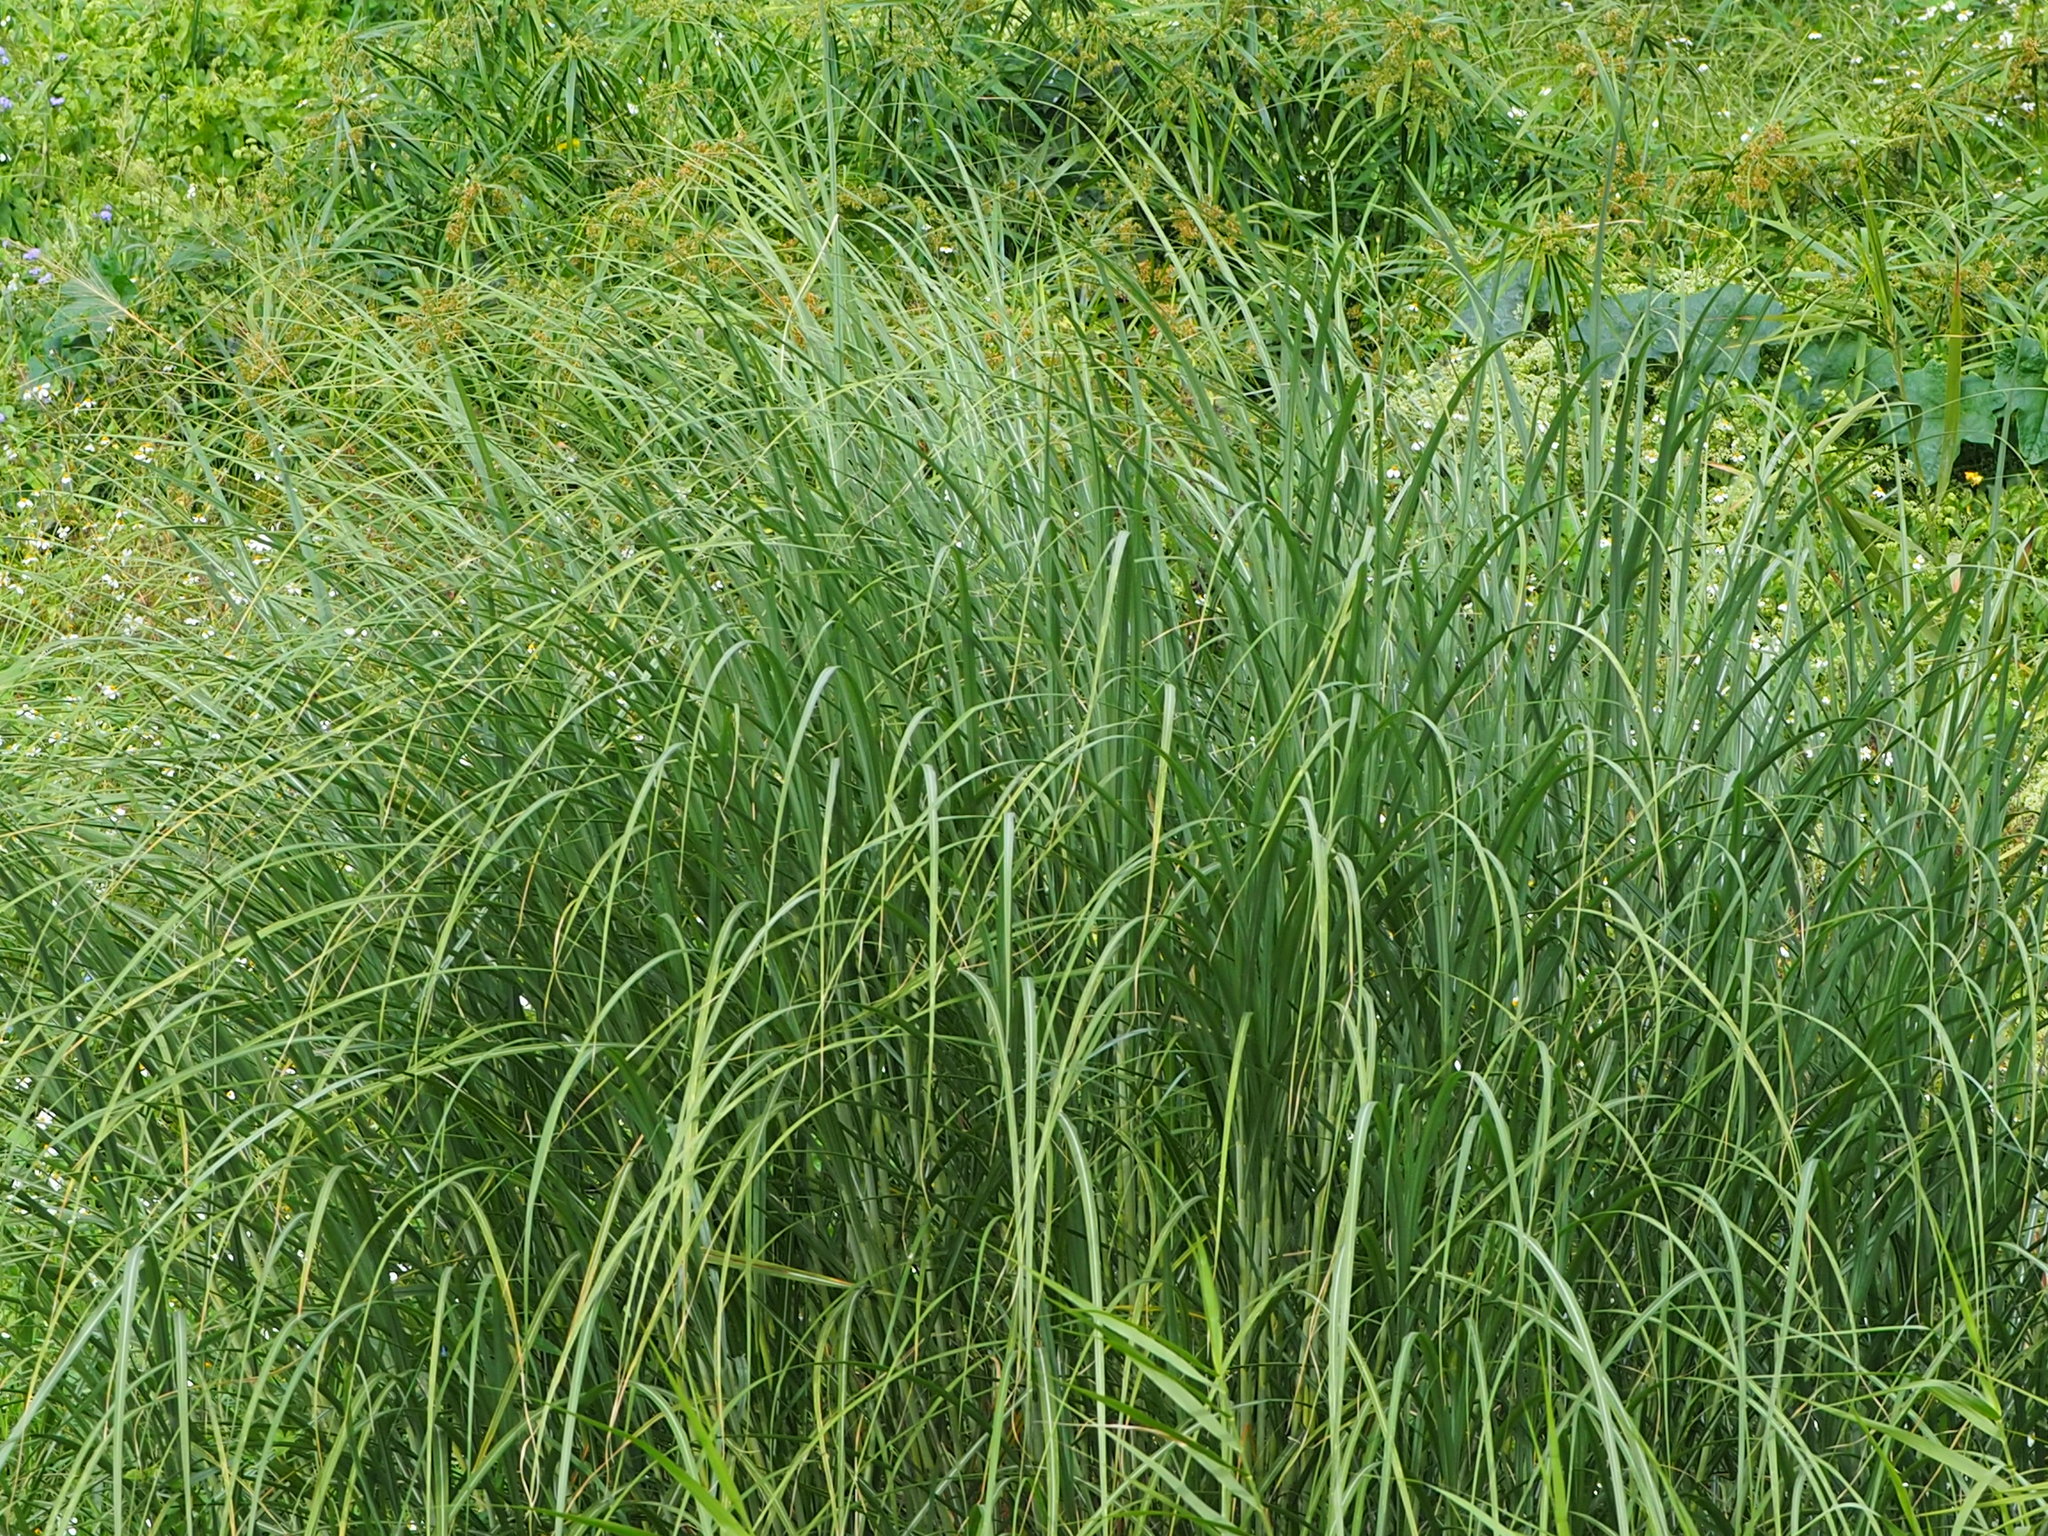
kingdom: Plantae
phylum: Tracheophyta
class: Liliopsida
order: Poales
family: Poaceae
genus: Saccharum
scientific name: Saccharum spontaneum
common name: Wild sugarcane
